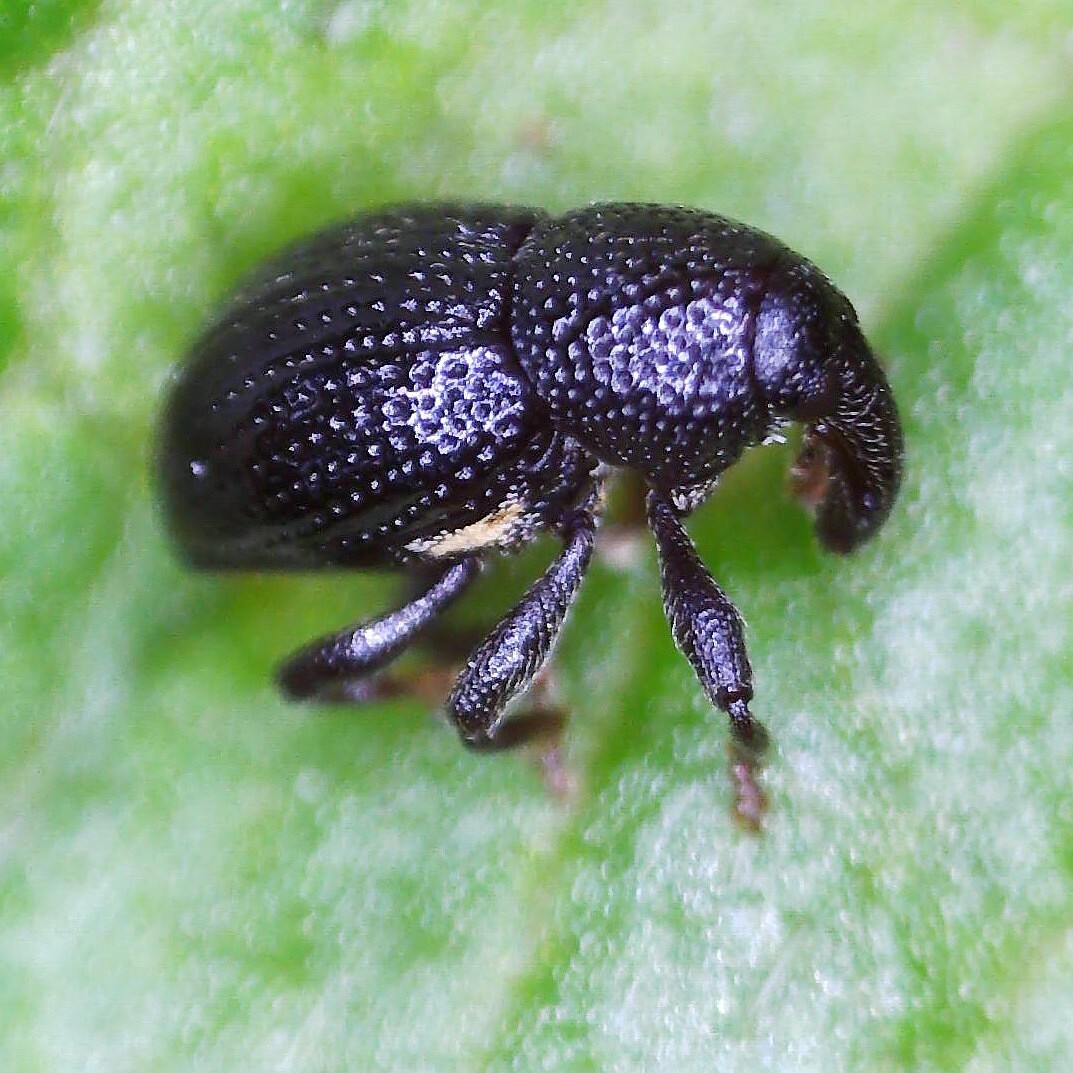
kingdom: Animalia
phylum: Arthropoda
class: Insecta
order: Coleoptera
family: Curculionidae
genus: Leiosoma
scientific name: Leiosoma deflexum
